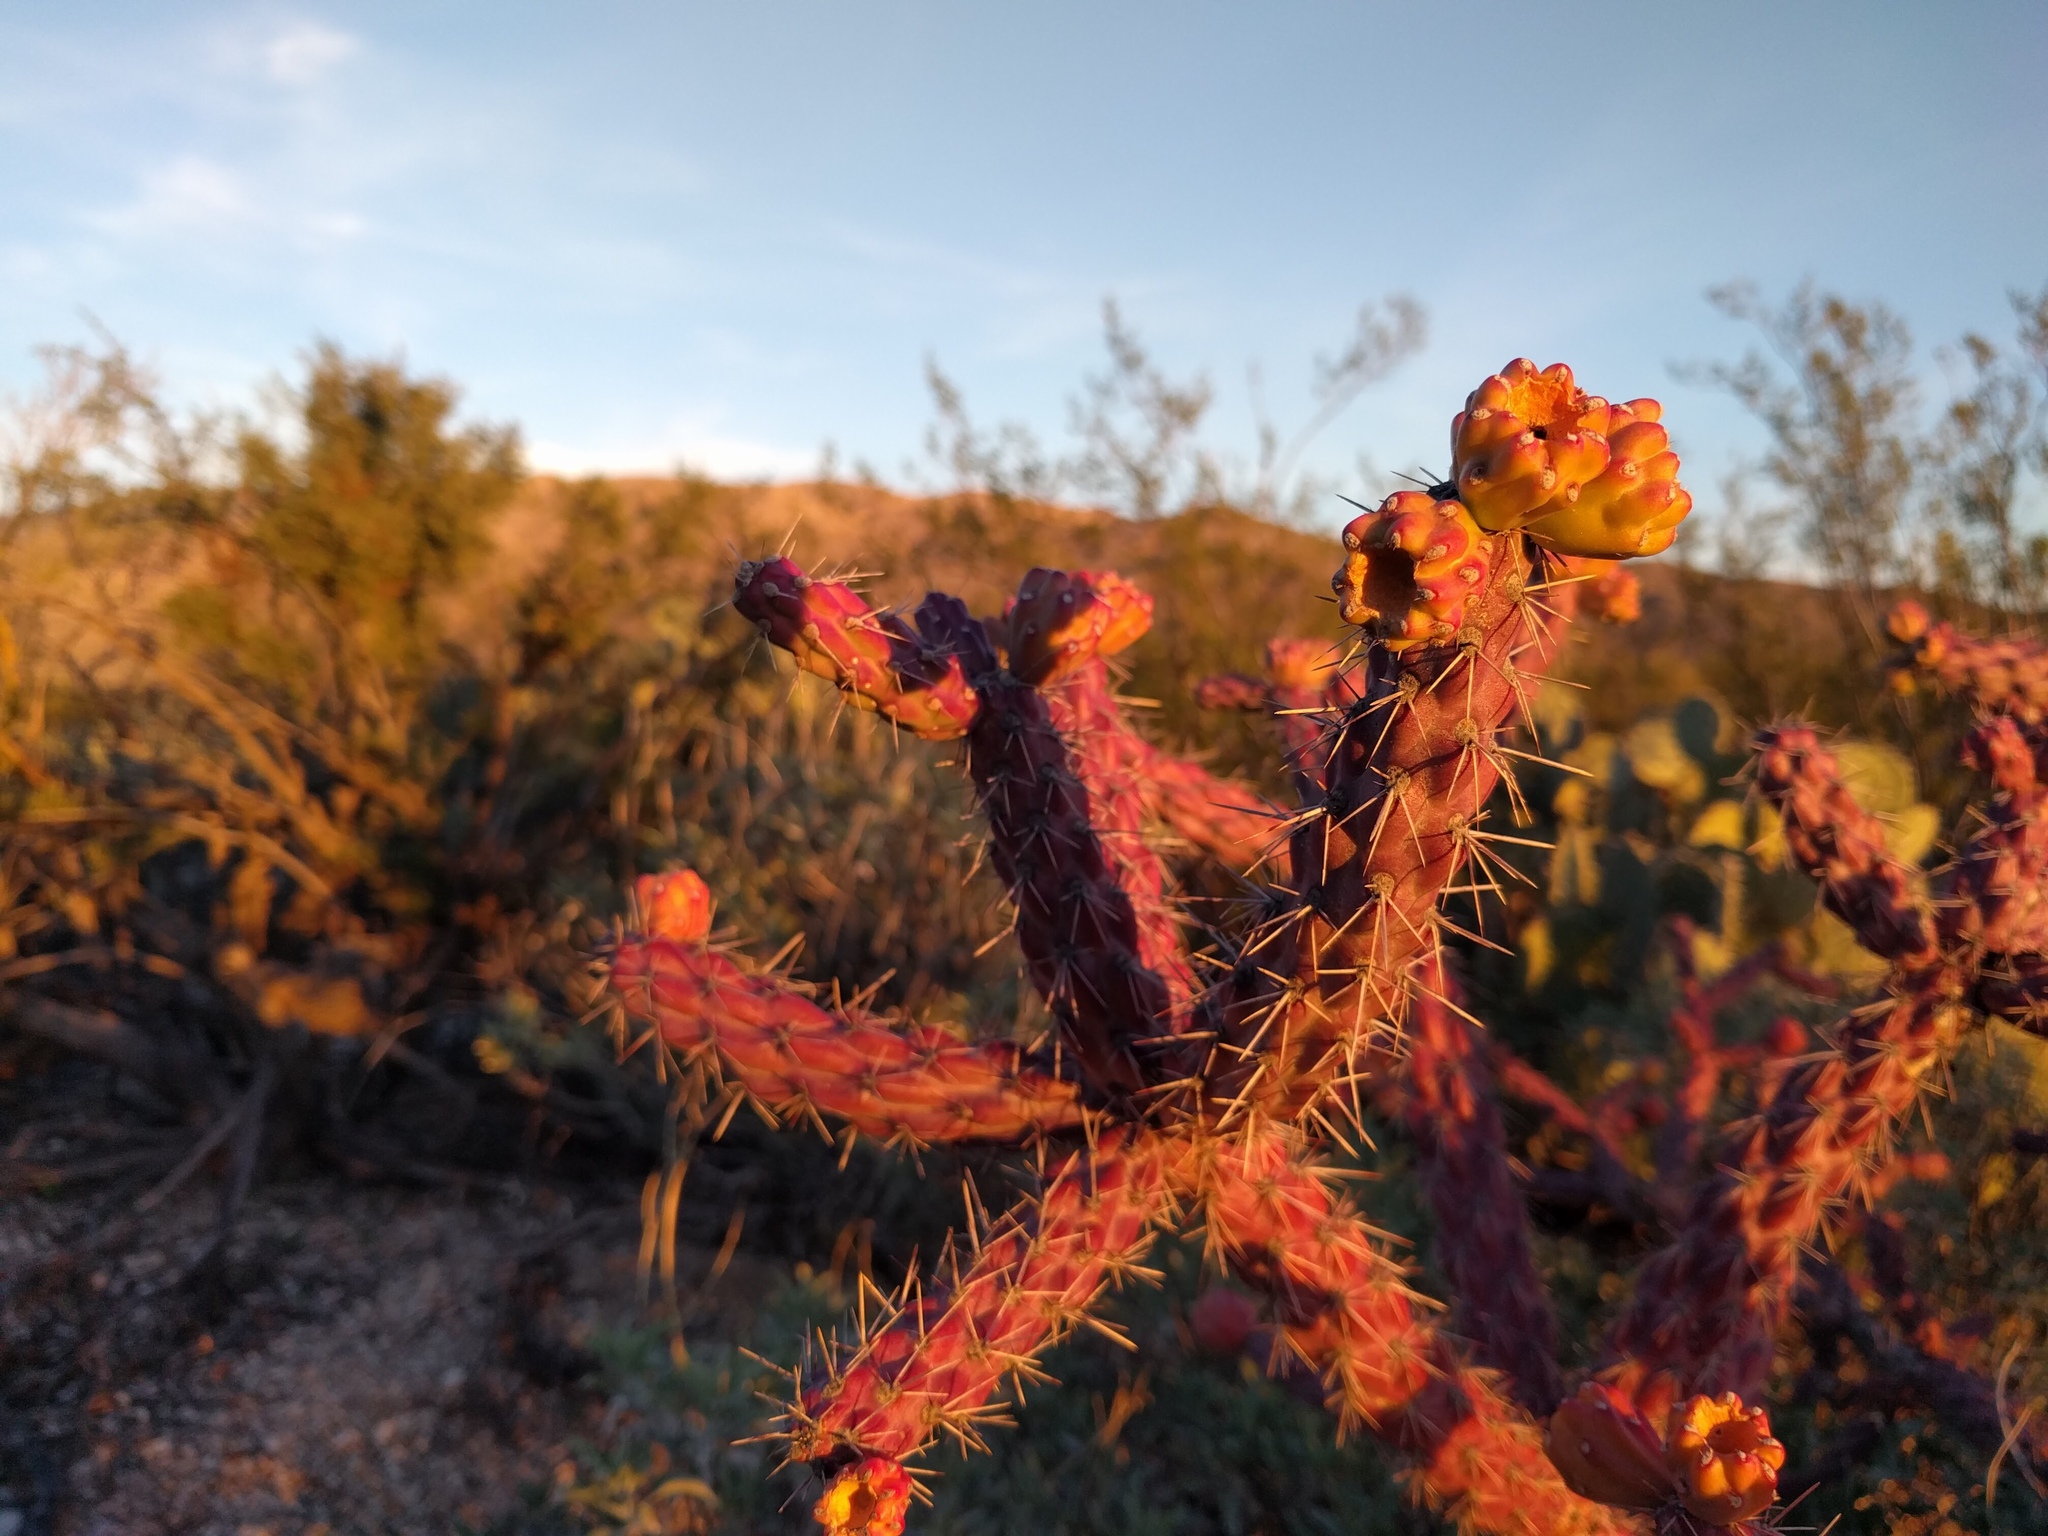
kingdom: Plantae
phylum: Tracheophyta
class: Magnoliopsida
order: Caryophyllales
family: Cactaceae
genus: Cylindropuntia
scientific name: Cylindropuntia thurberi
